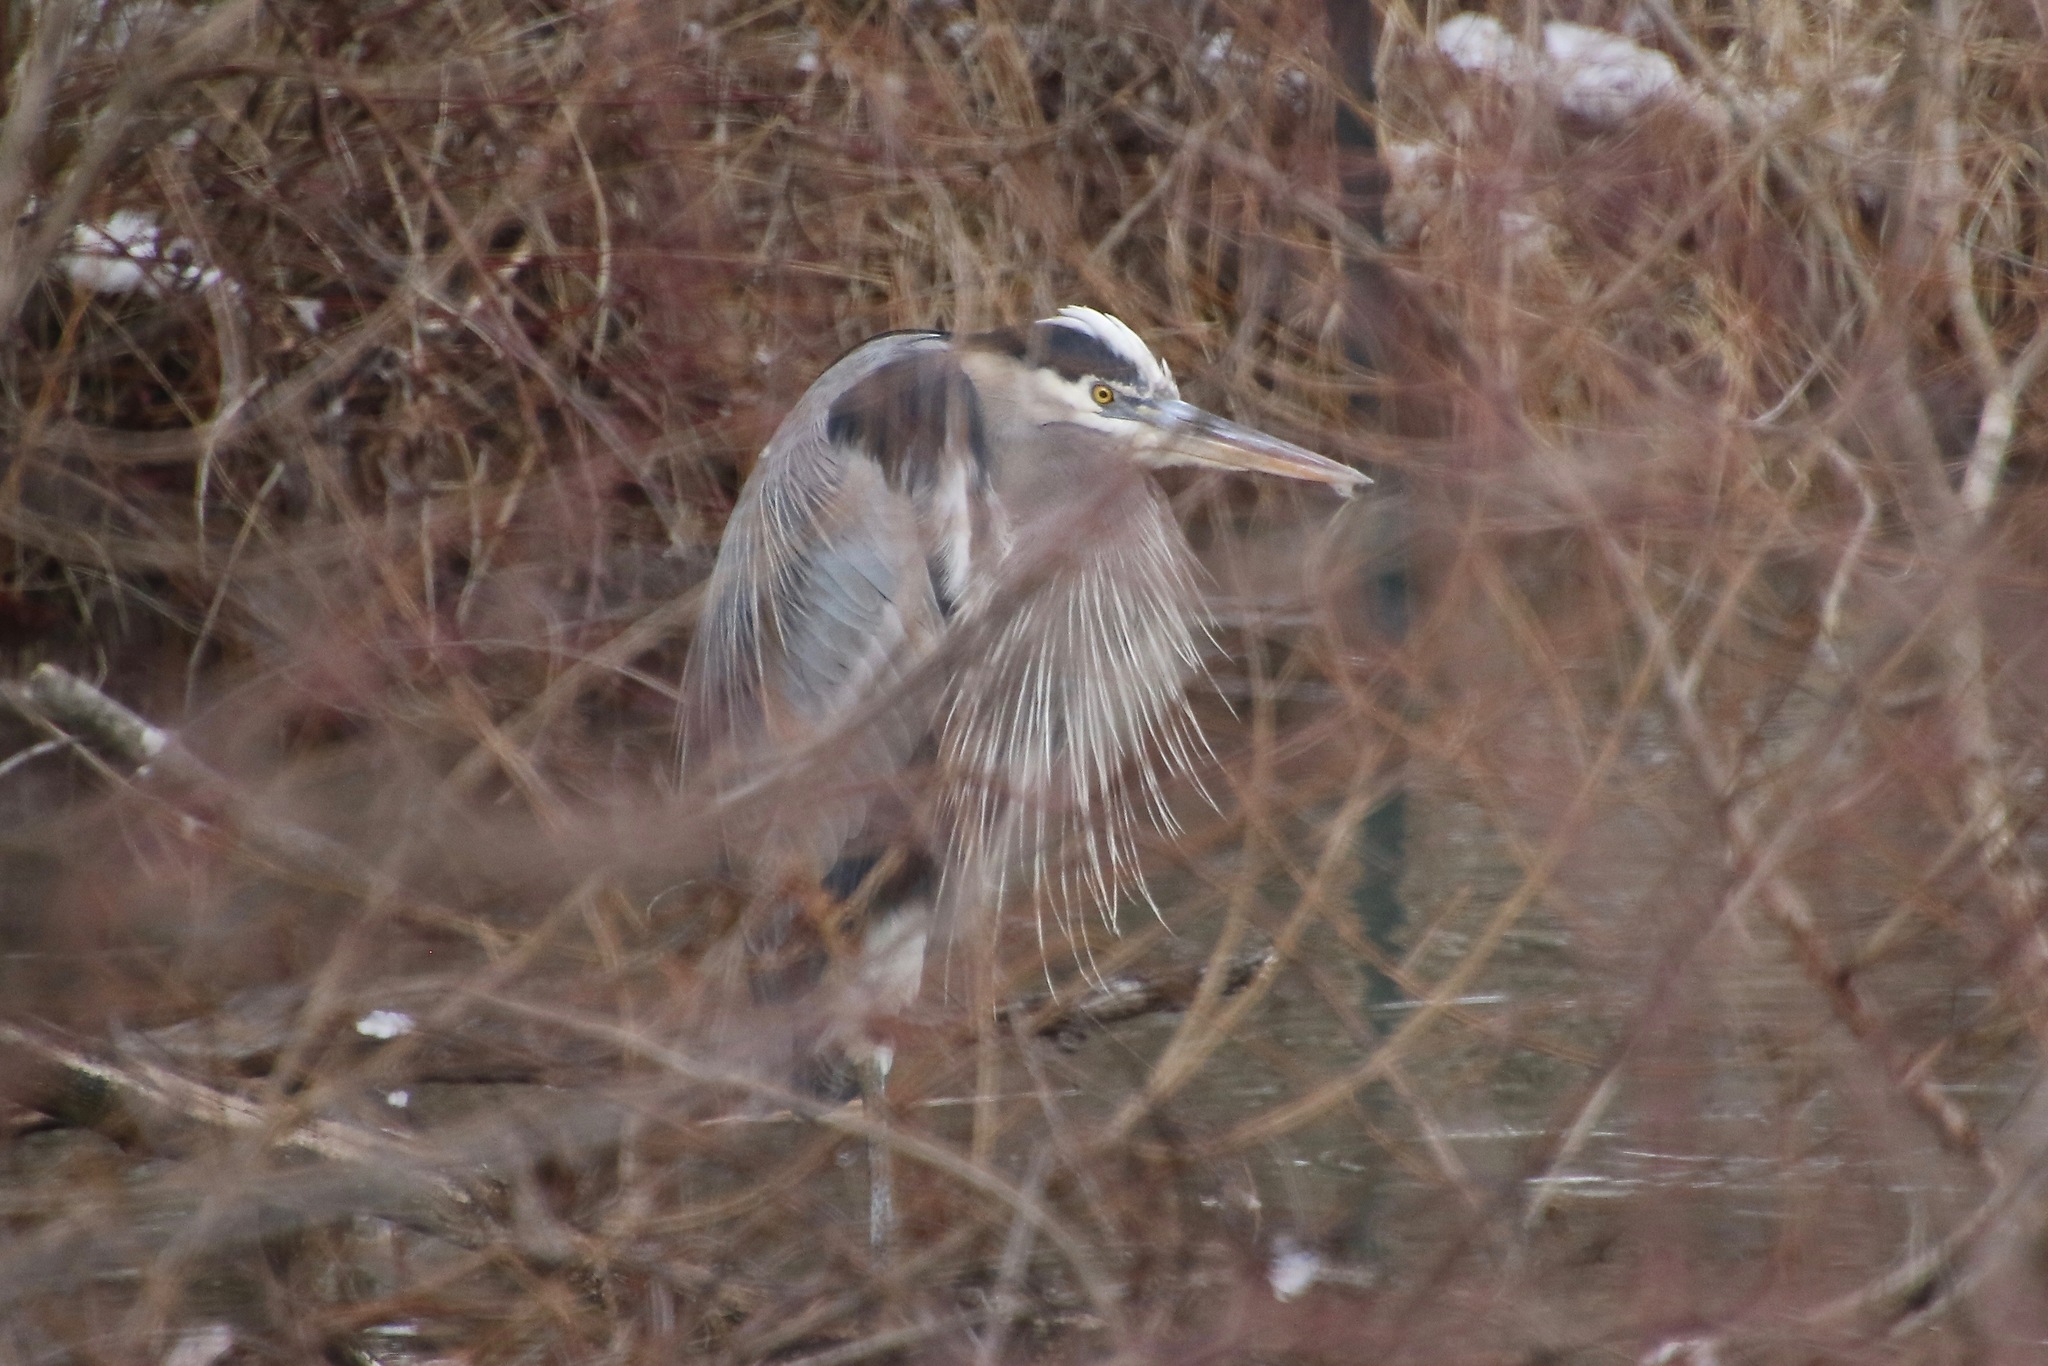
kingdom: Animalia
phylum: Chordata
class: Aves
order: Pelecaniformes
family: Ardeidae
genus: Ardea
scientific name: Ardea herodias
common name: Great blue heron
